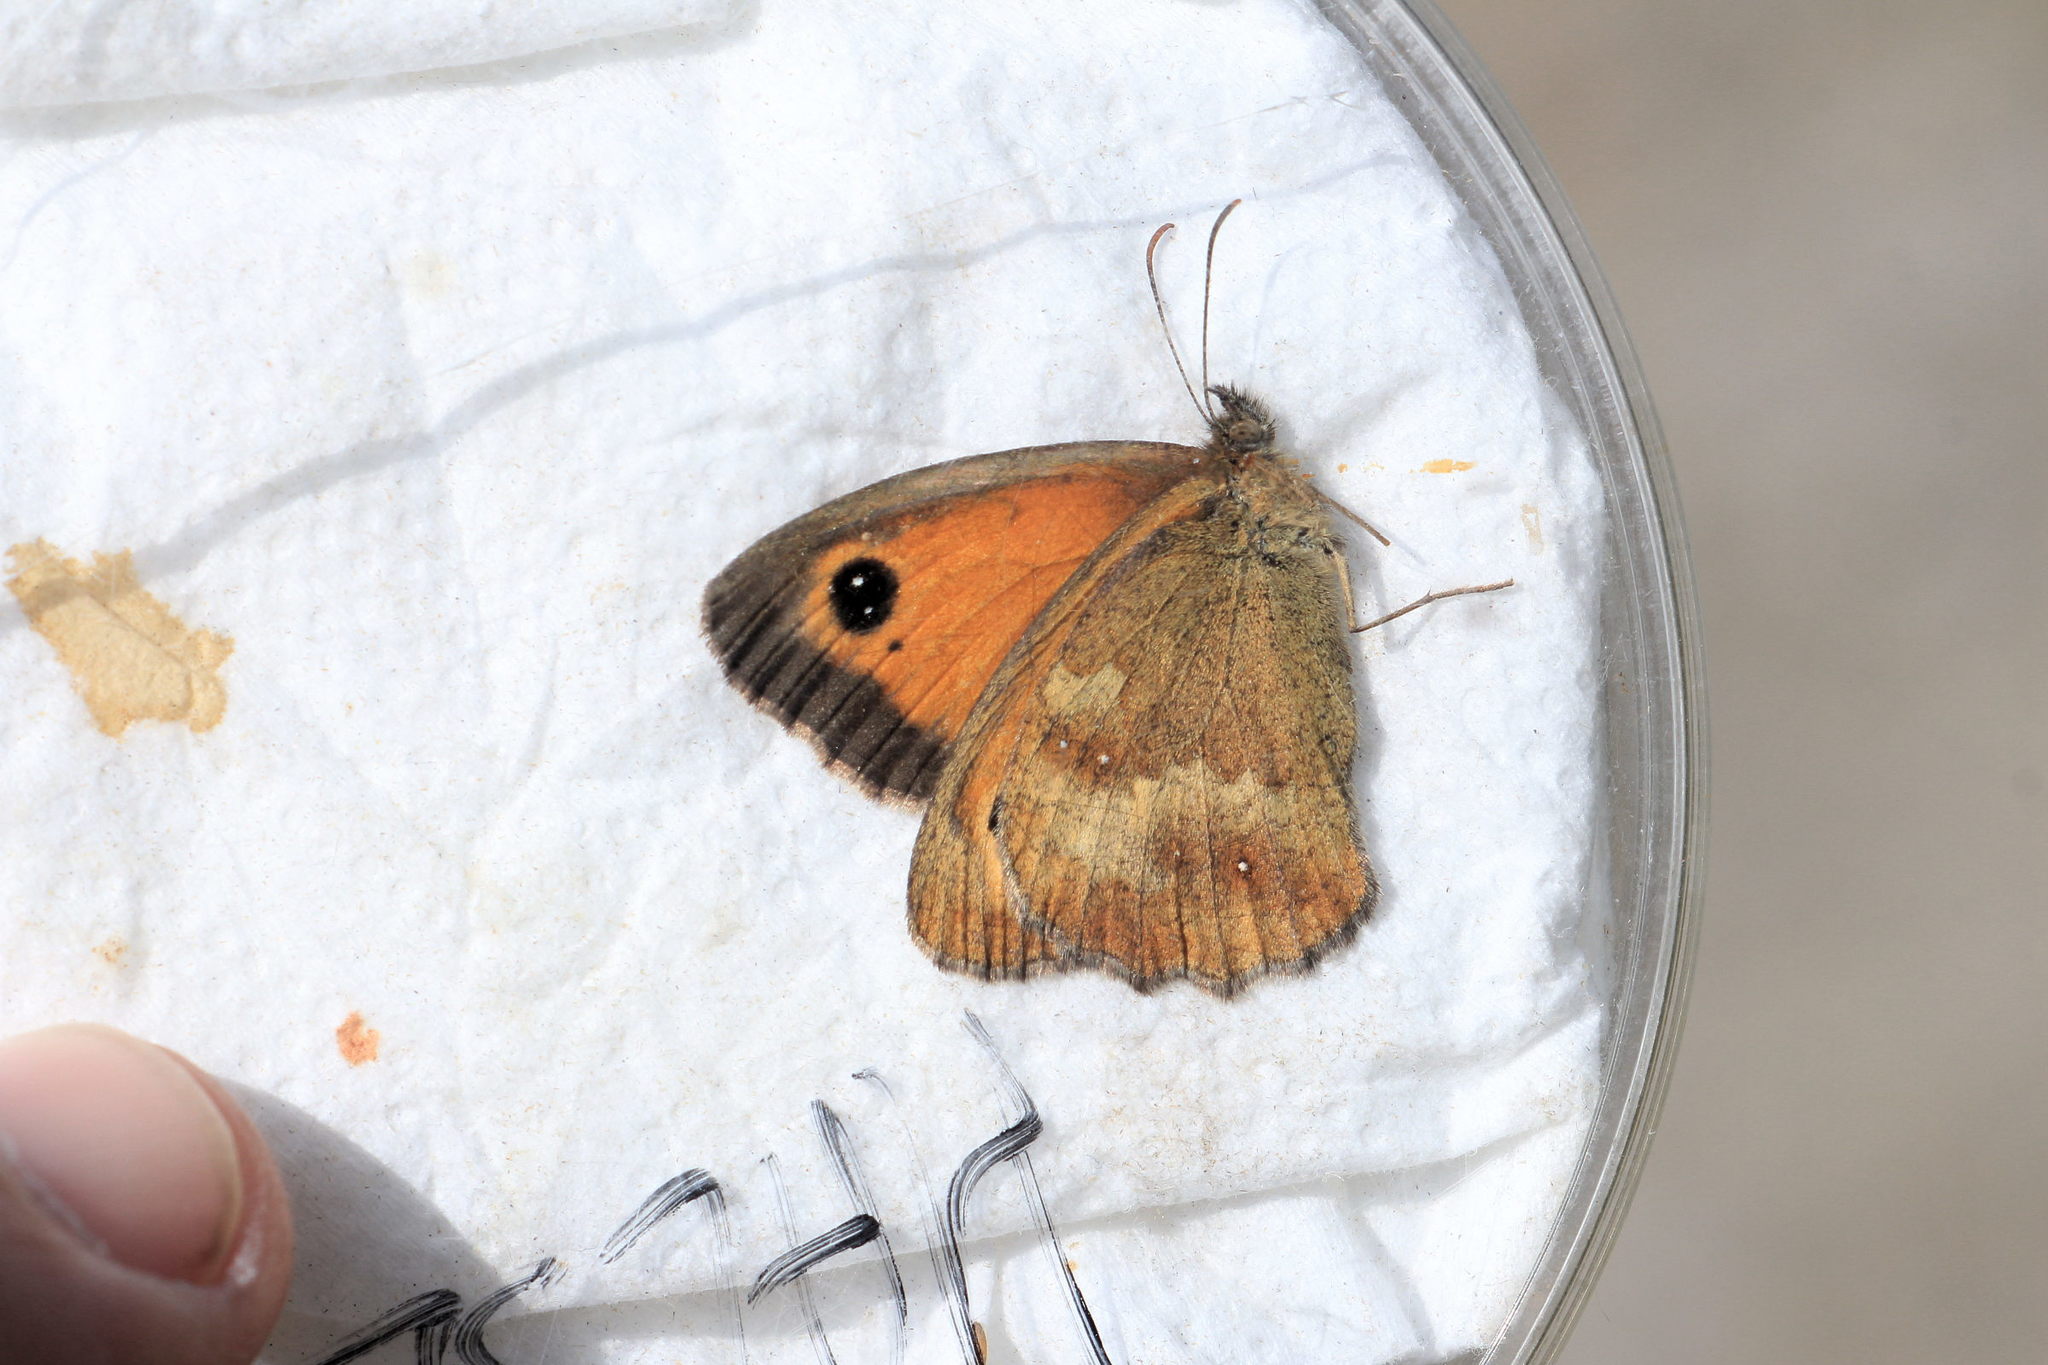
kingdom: Animalia
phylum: Arthropoda
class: Insecta
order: Lepidoptera
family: Nymphalidae
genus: Pyronia
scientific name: Pyronia tithonus
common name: Gatekeeper
